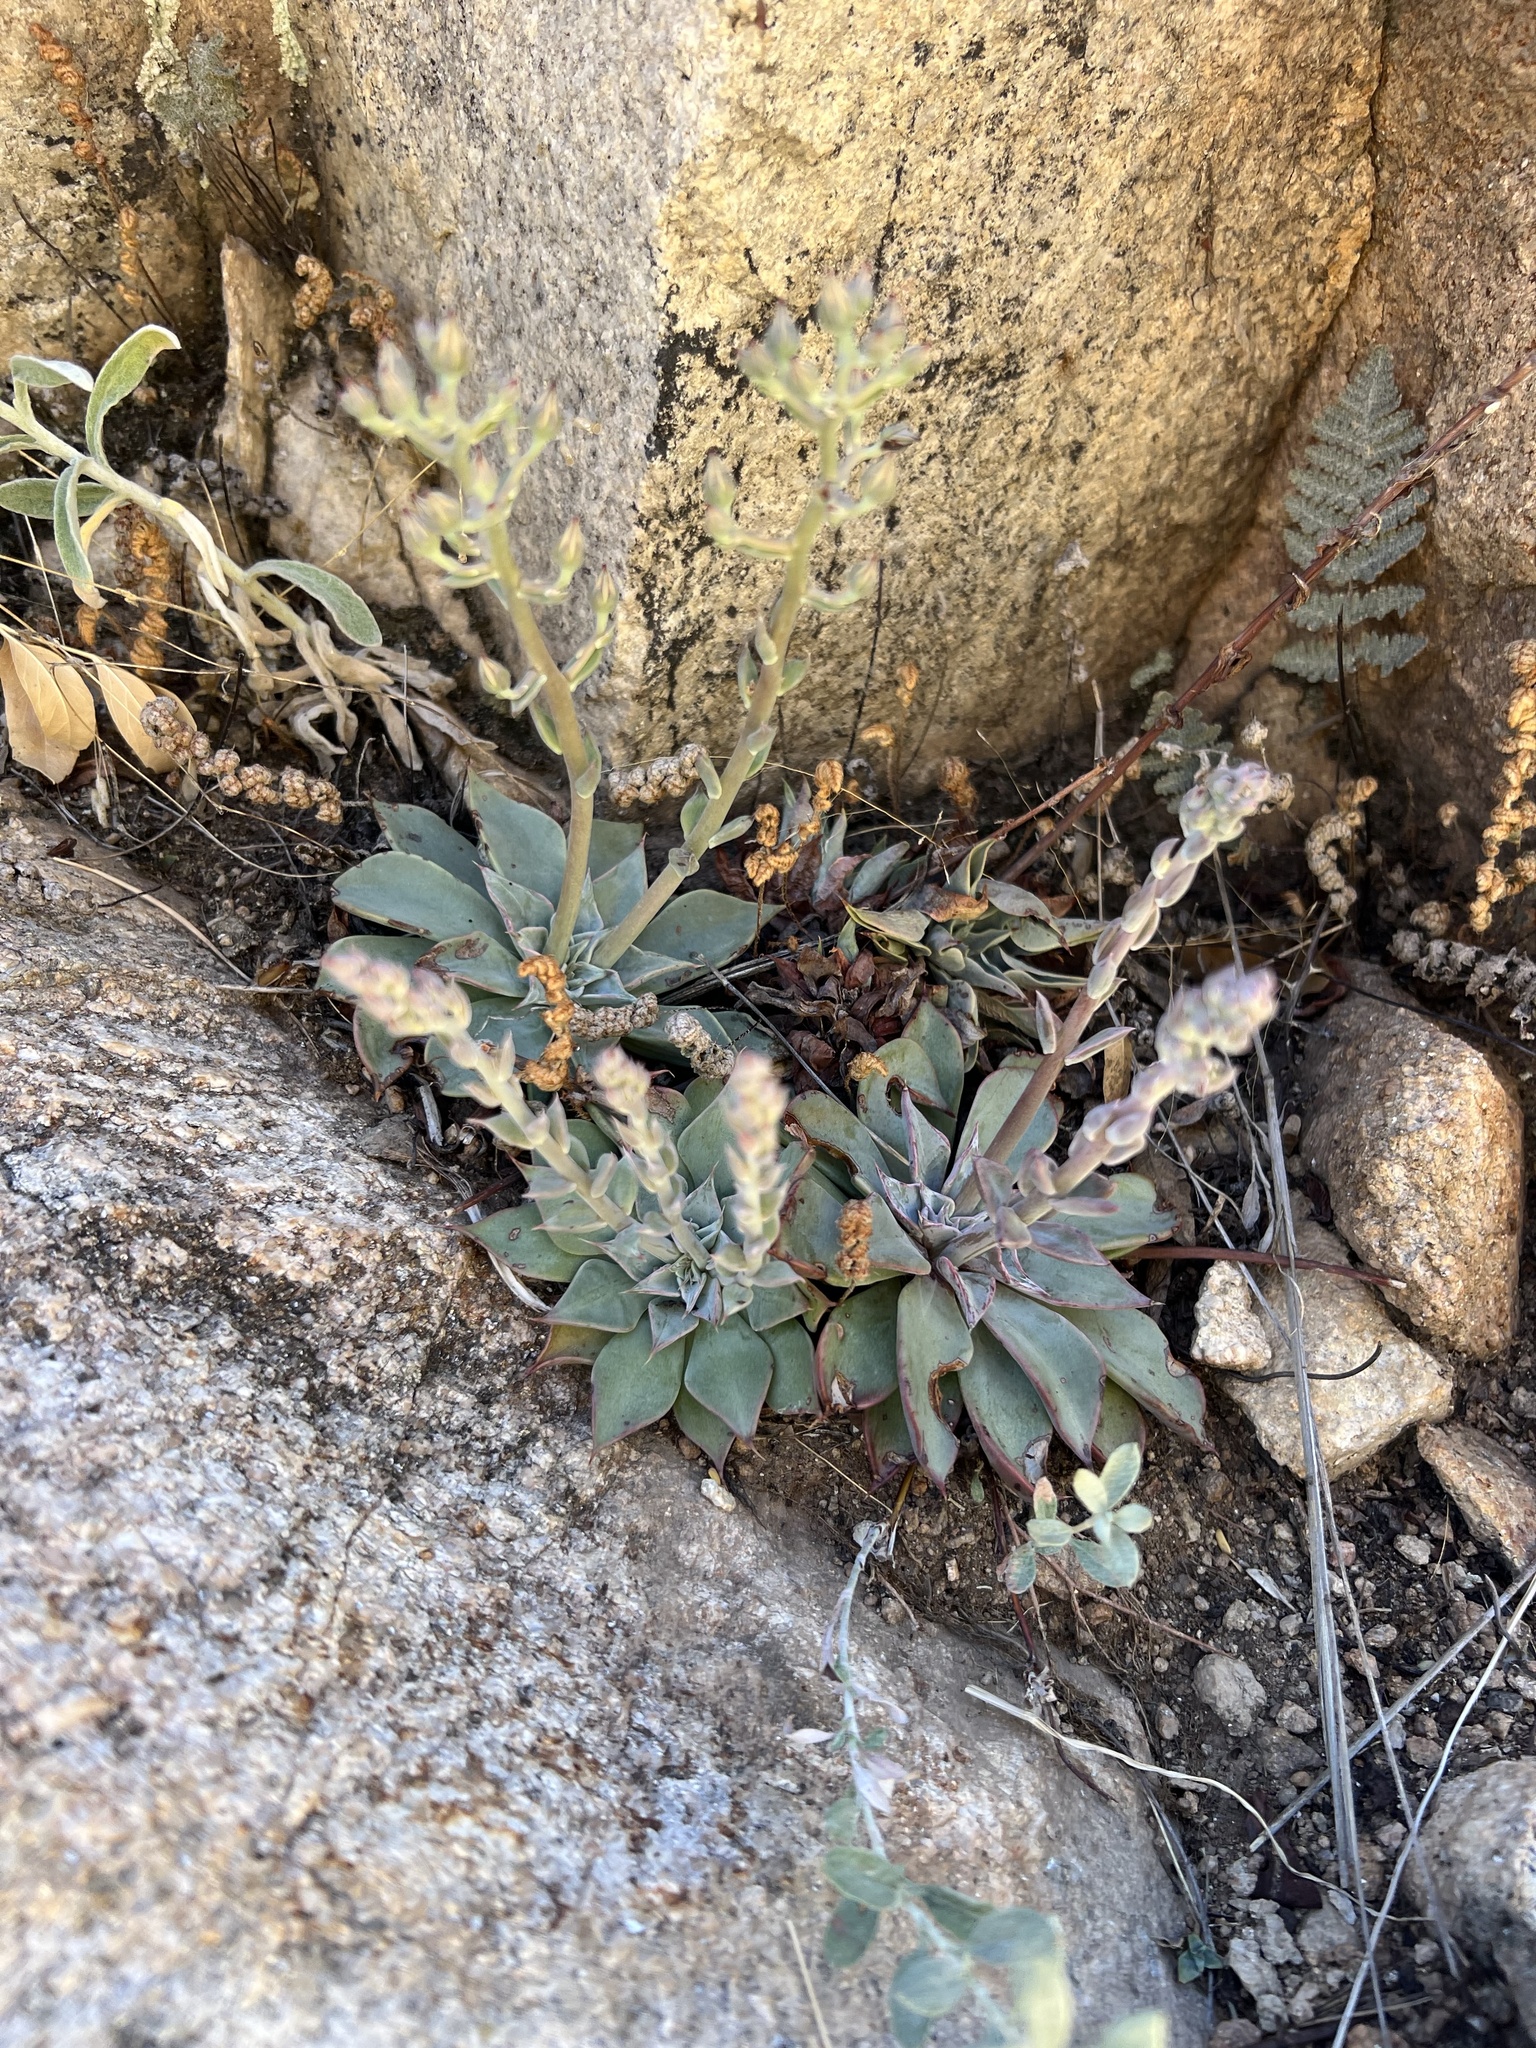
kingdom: Plantae
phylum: Tracheophyta
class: Magnoliopsida
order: Saxifragales
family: Crassulaceae
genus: Graptopetalum
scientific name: Graptopetalum bartramii
